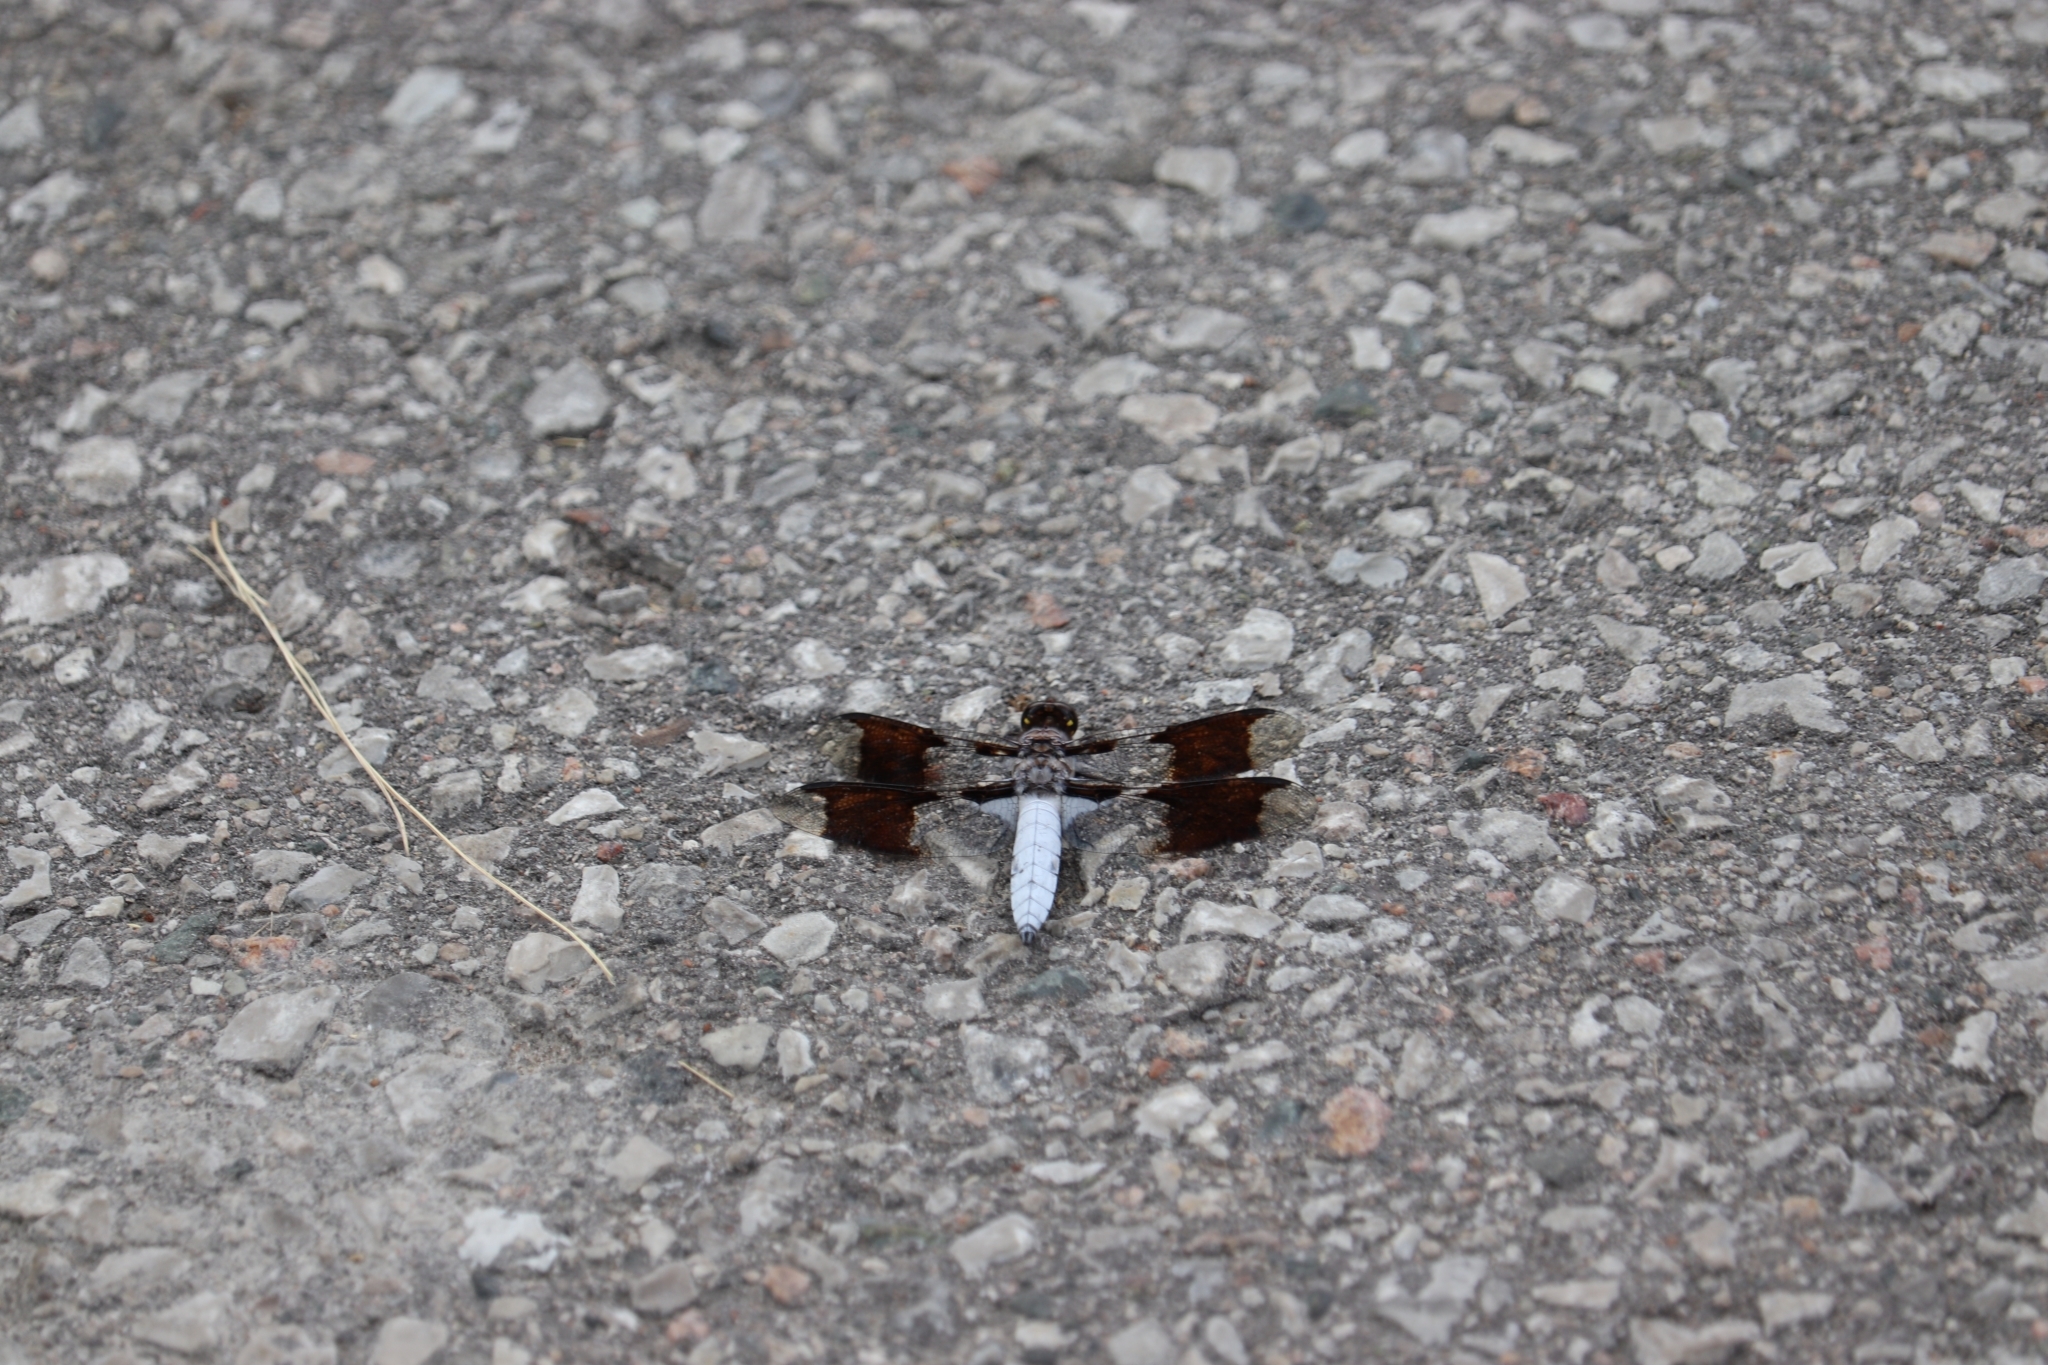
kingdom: Animalia
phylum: Arthropoda
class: Insecta
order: Odonata
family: Libellulidae
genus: Plathemis
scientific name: Plathemis lydia
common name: Common whitetail
